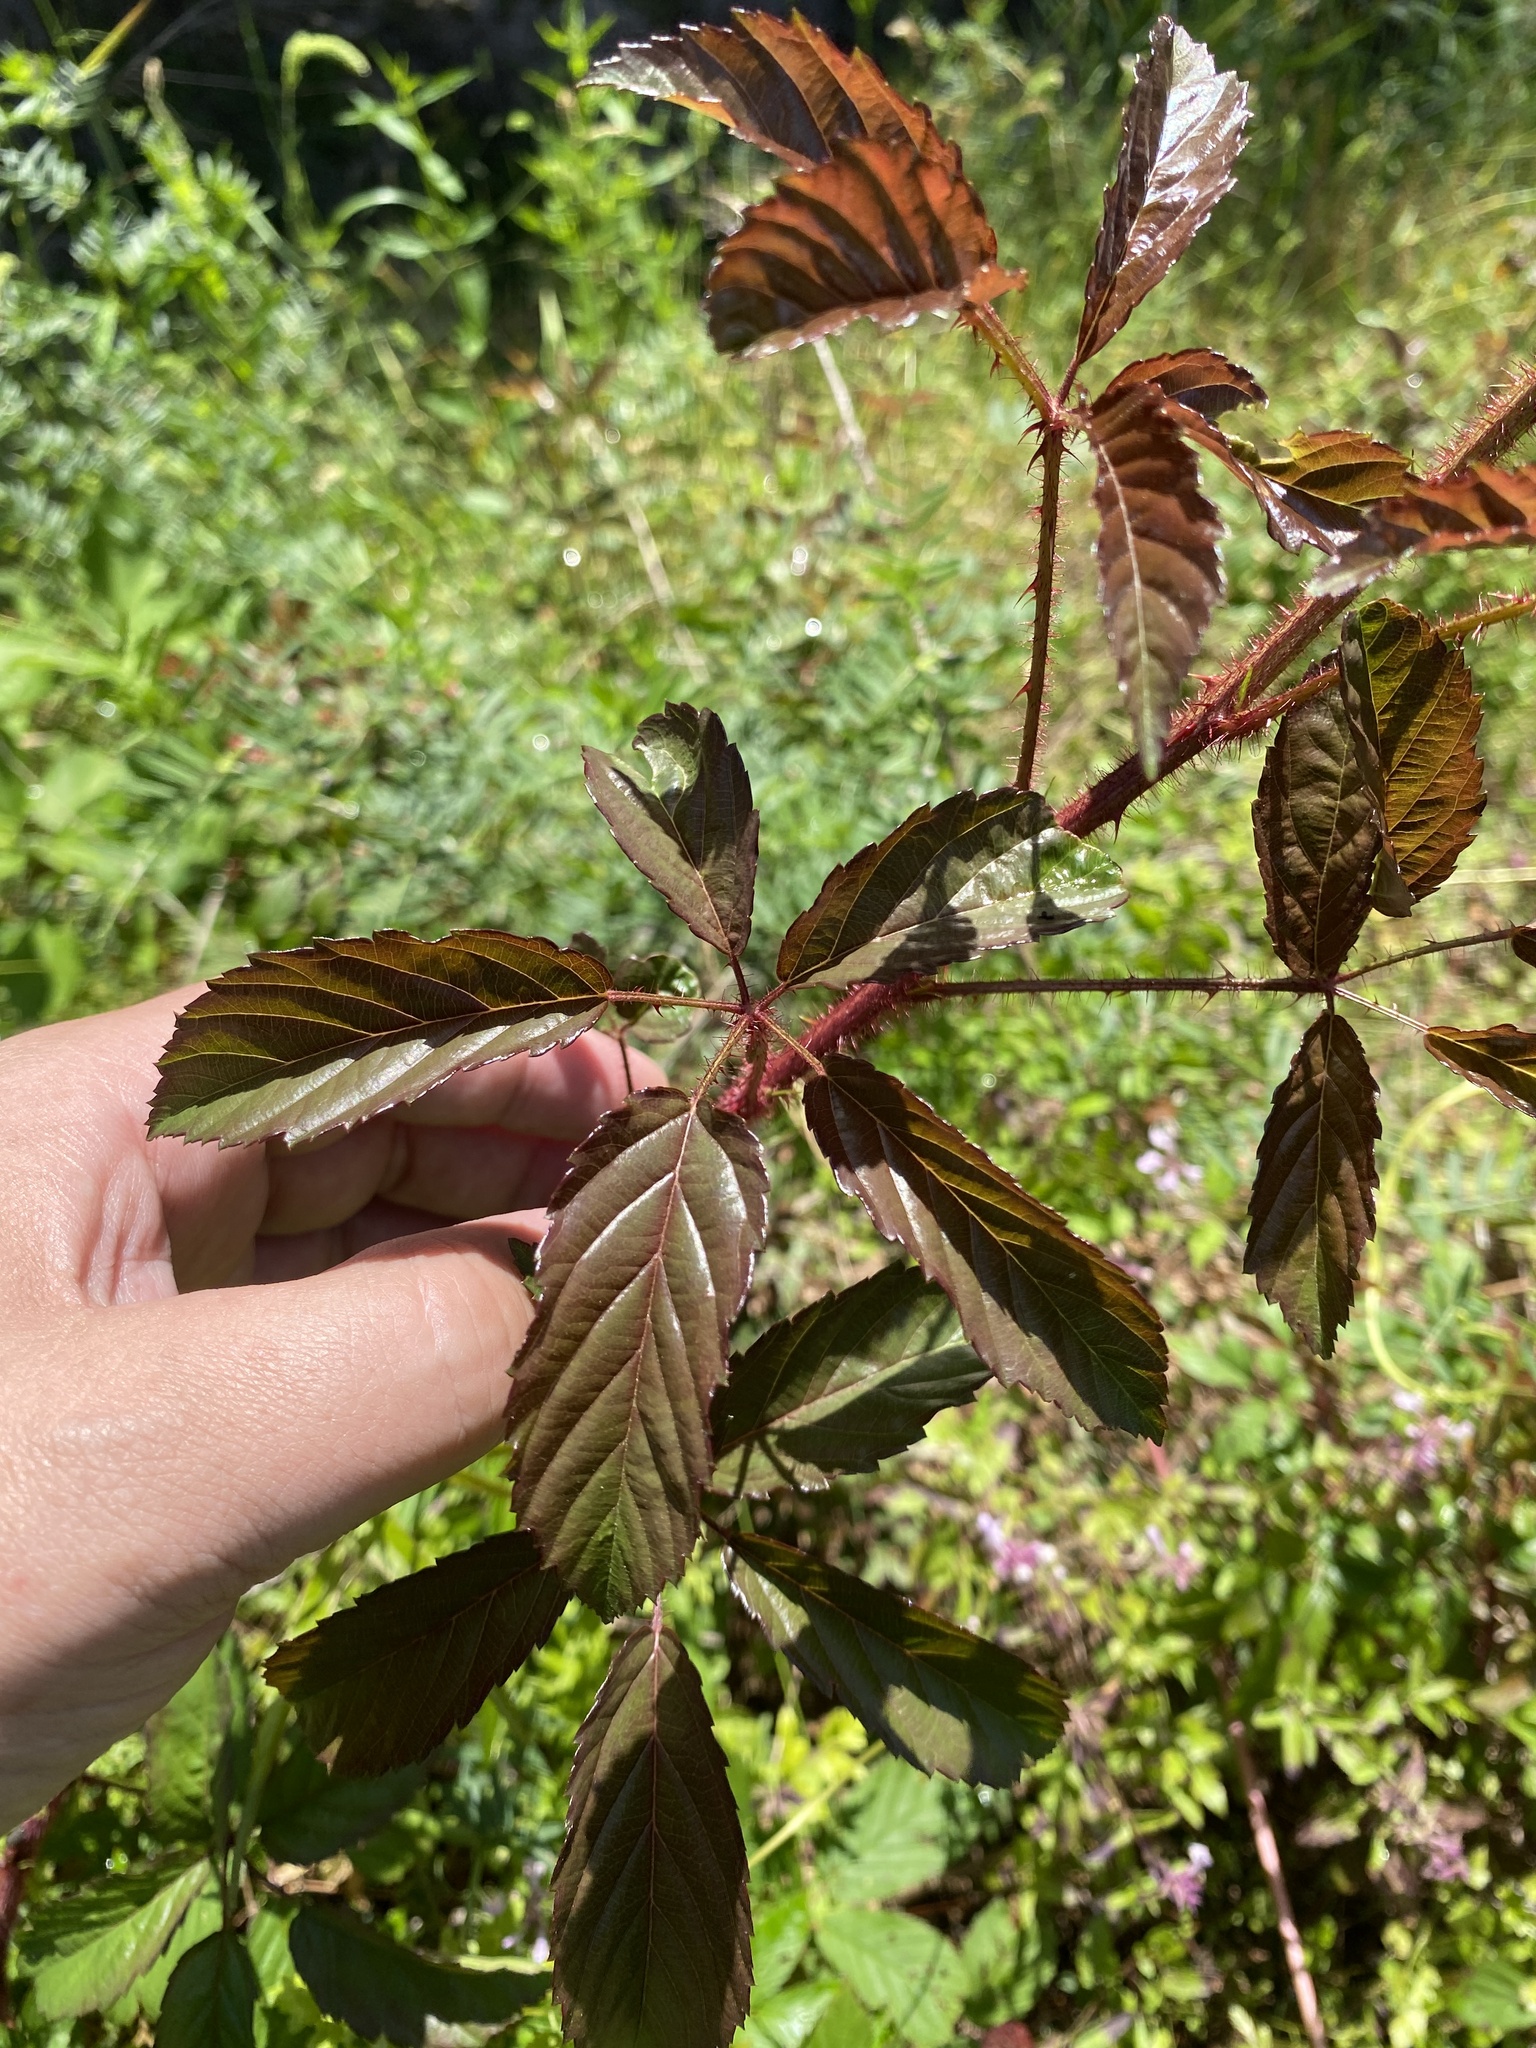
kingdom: Plantae
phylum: Tracheophyta
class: Magnoliopsida
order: Rosales
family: Rosaceae
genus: Rubus
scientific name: Rubus trivialis
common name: Southern dewberry
